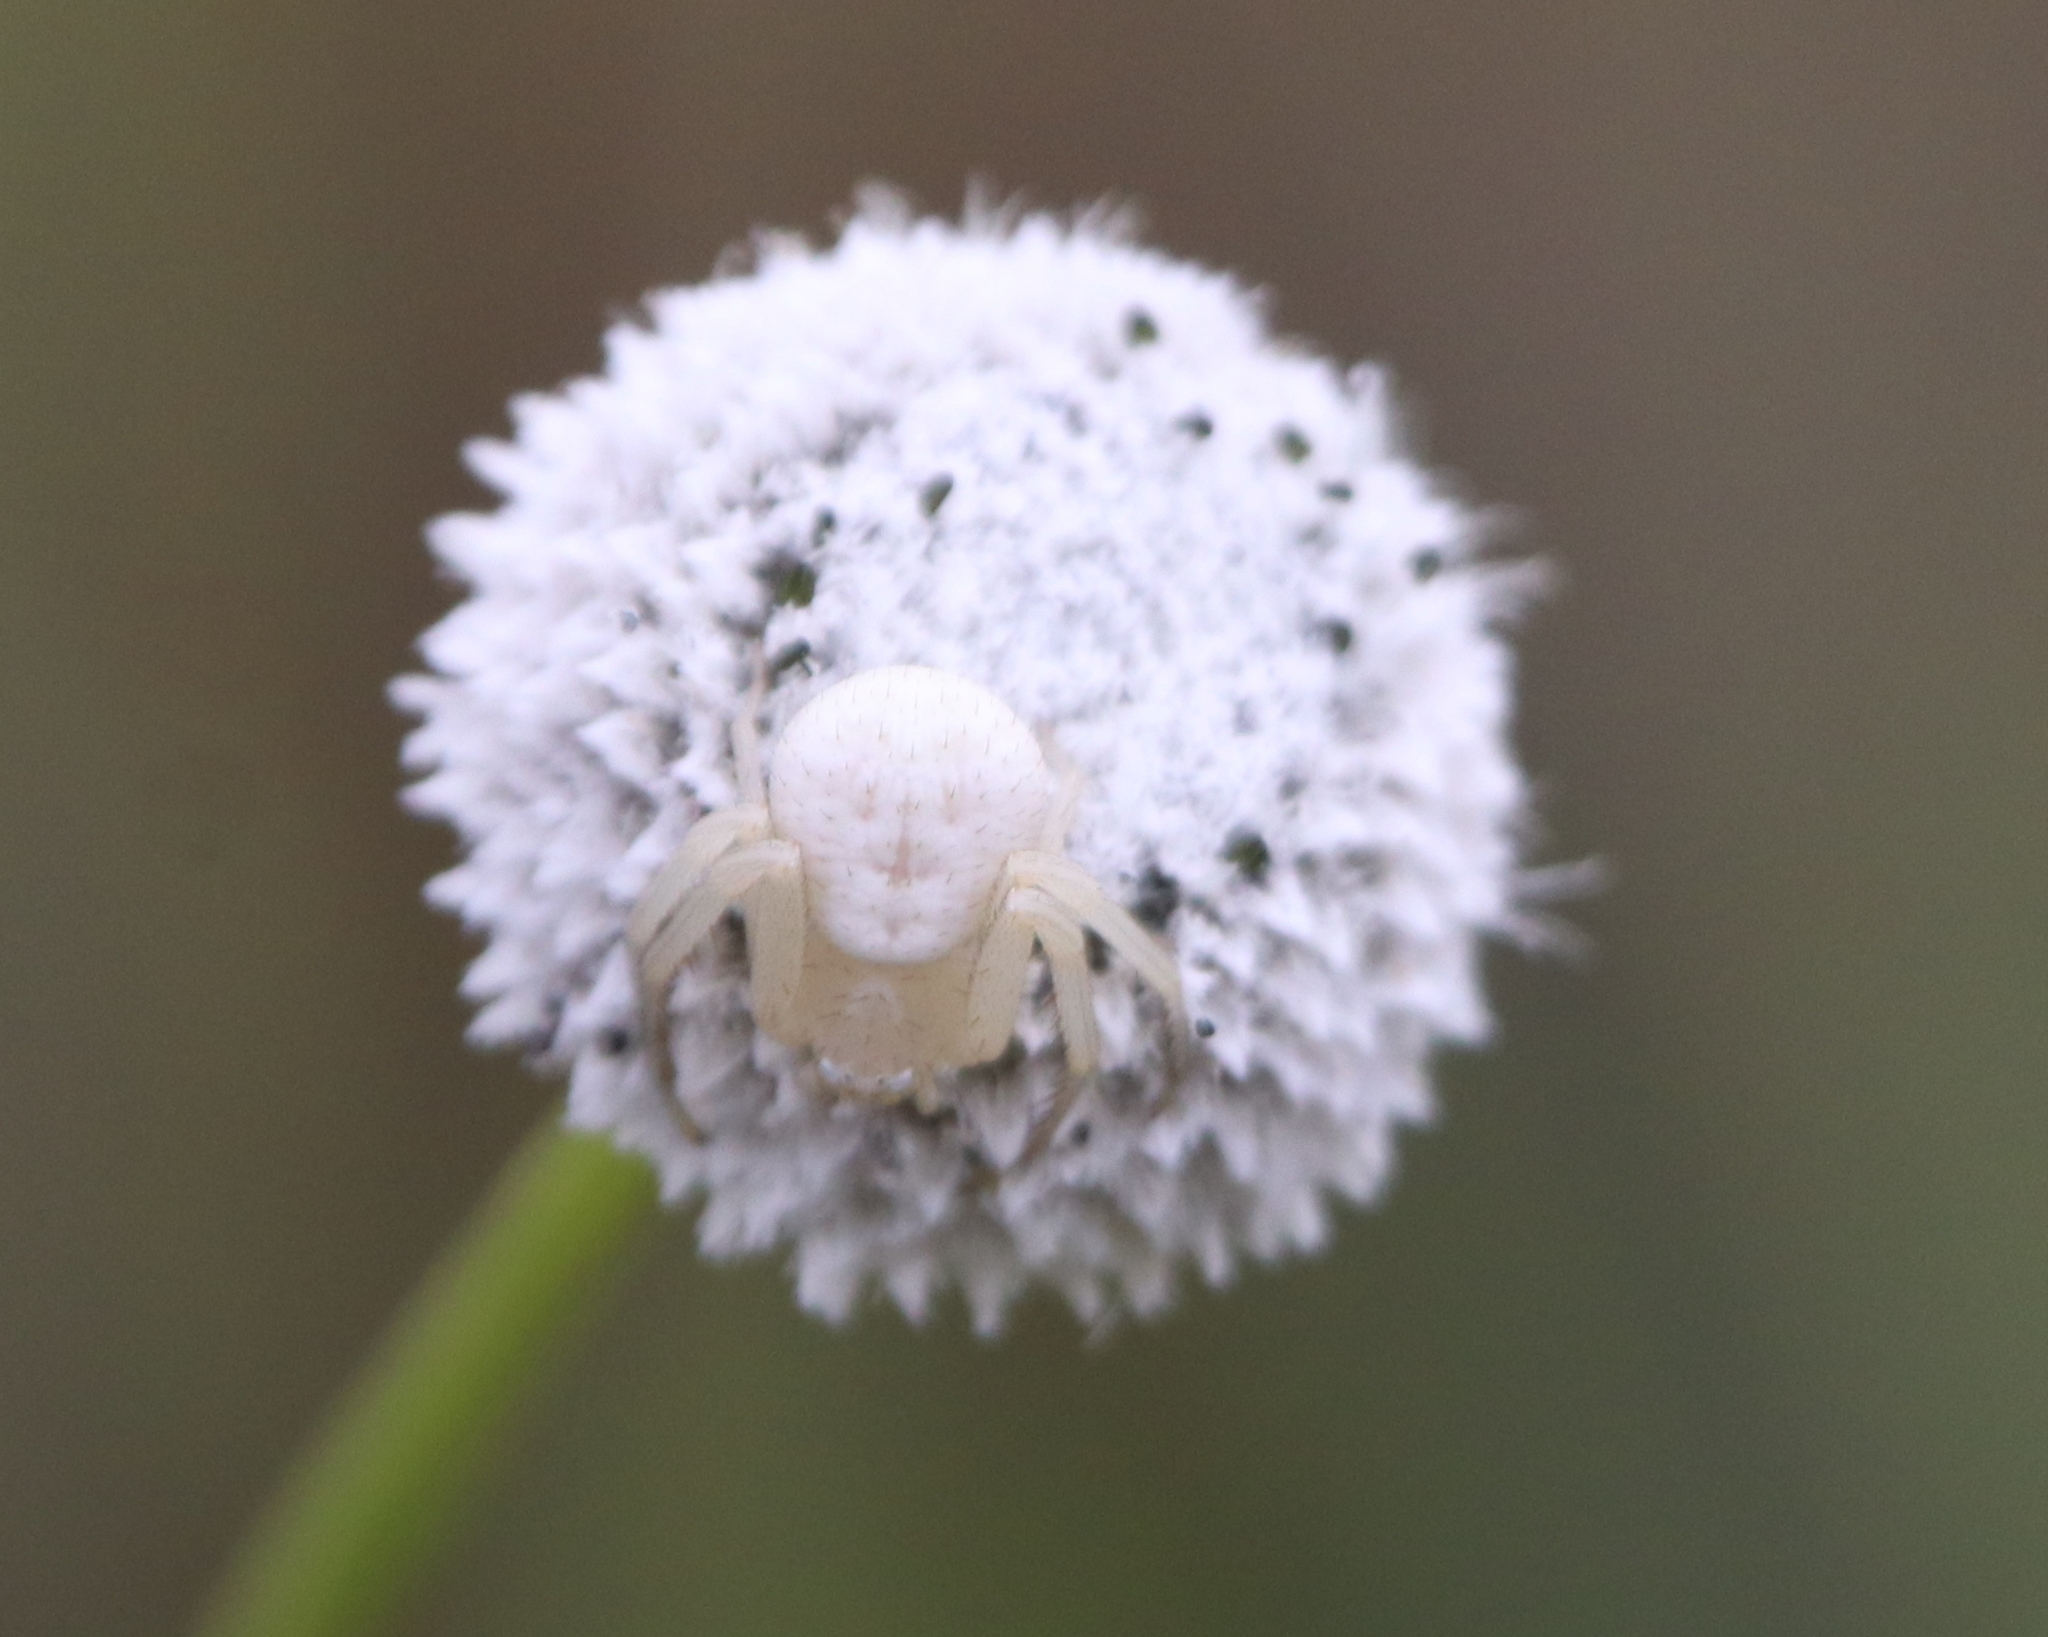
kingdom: Animalia
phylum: Arthropoda
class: Arachnida
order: Araneae
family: Thomisidae
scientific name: Thomisidae
